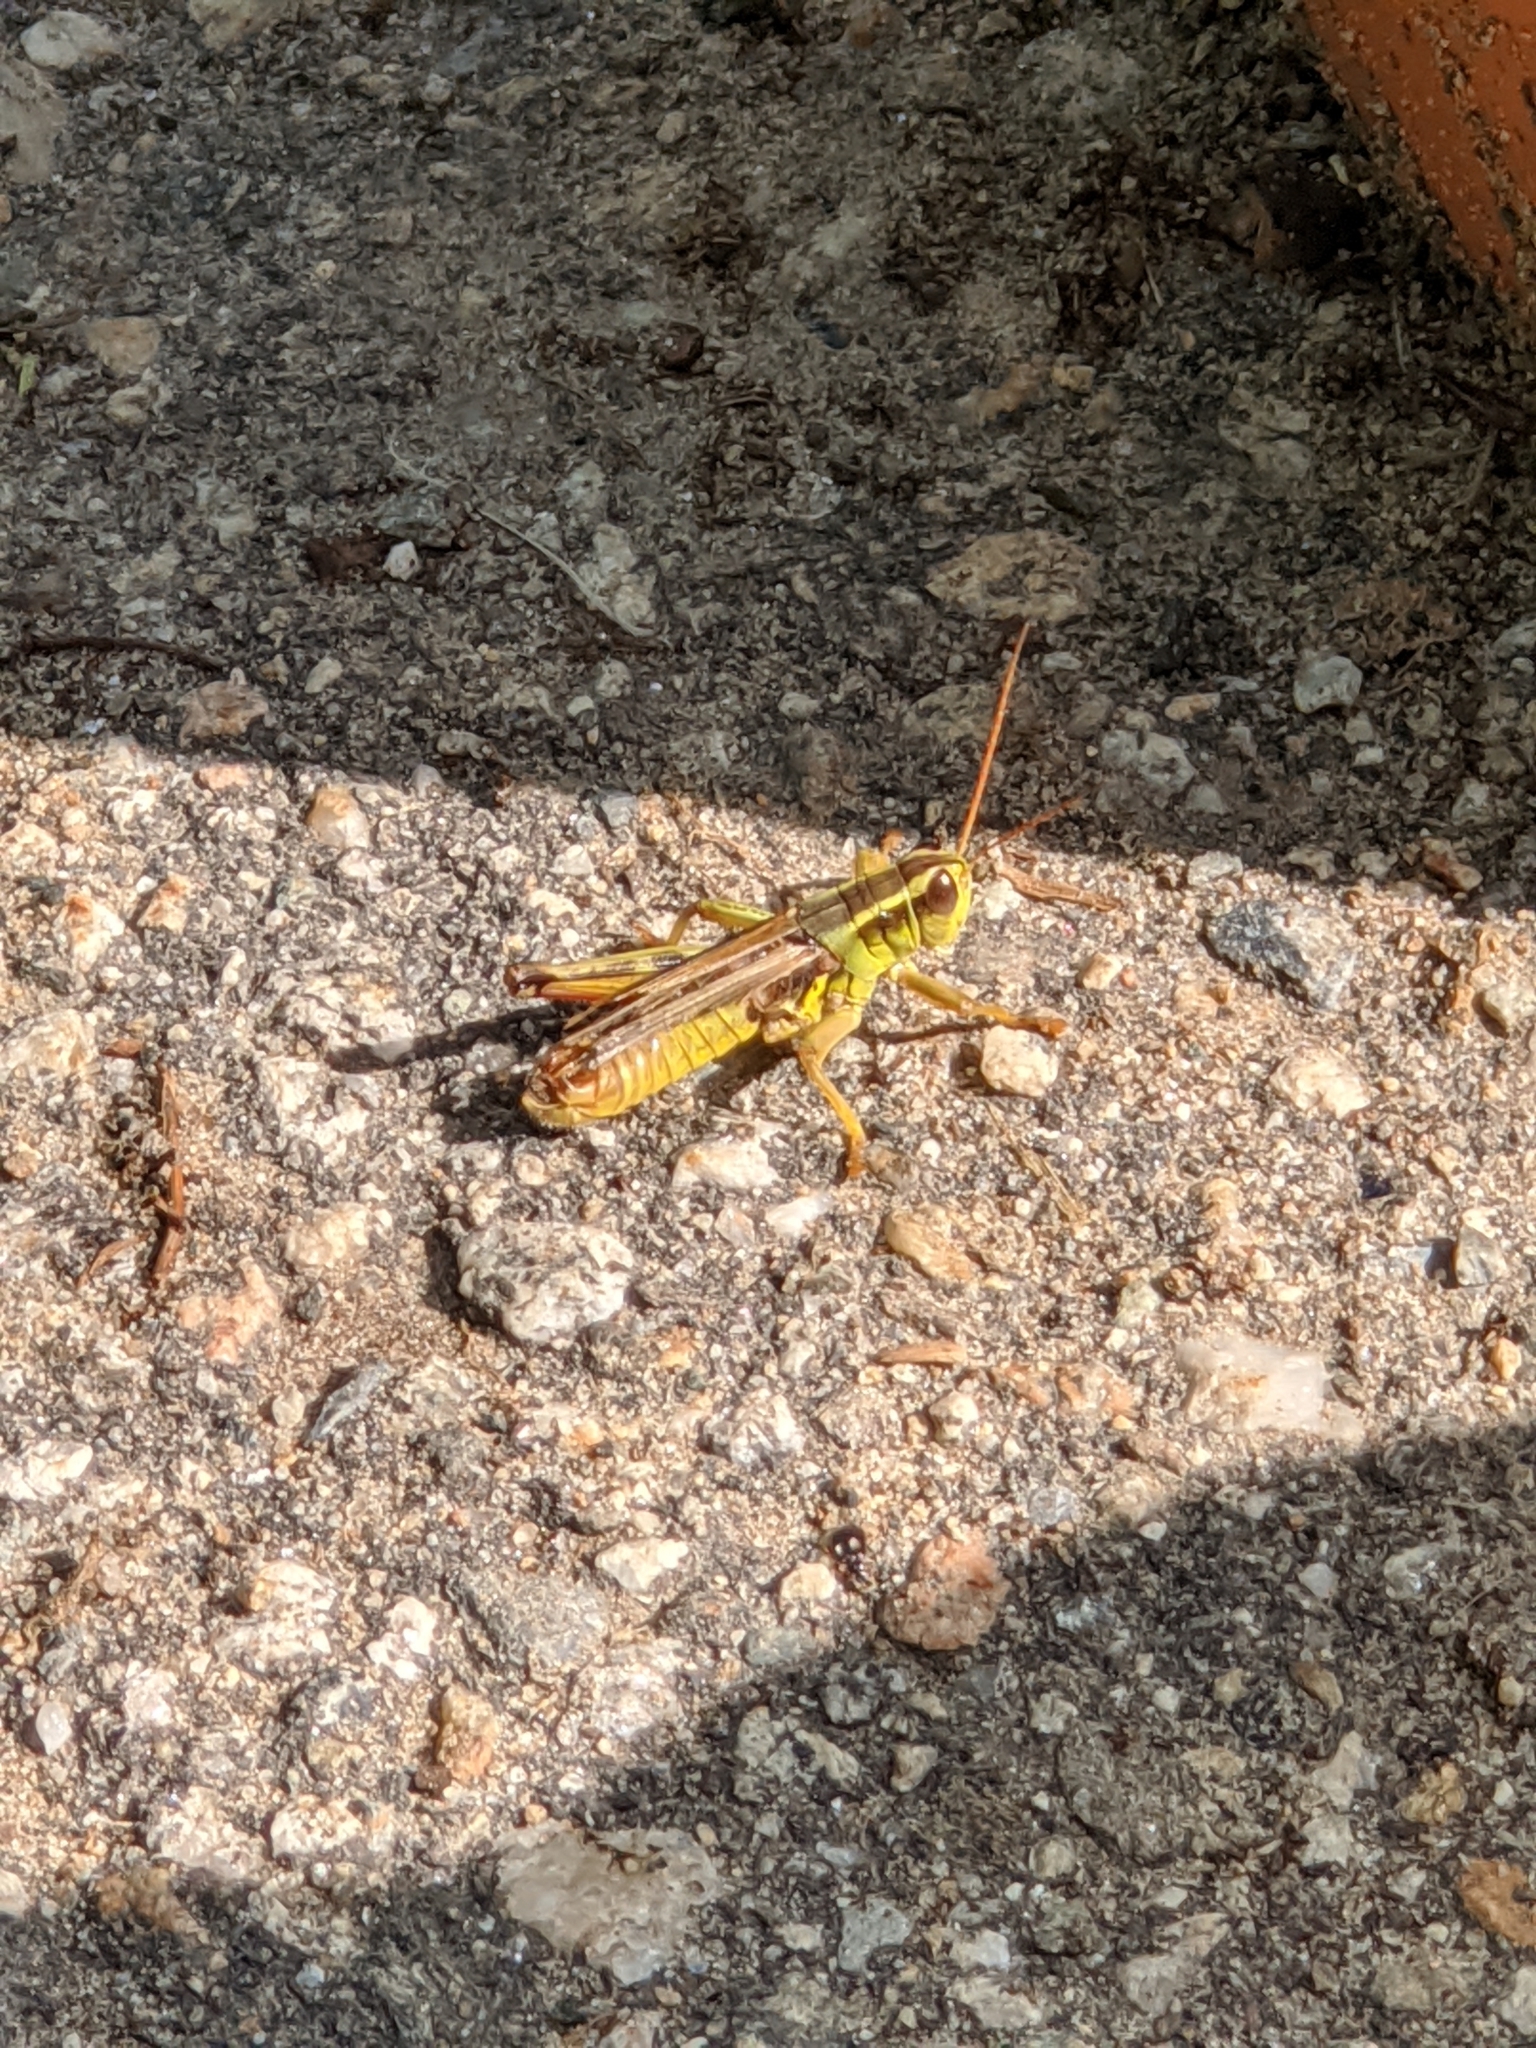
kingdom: Animalia
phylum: Arthropoda
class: Insecta
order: Orthoptera
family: Acrididae
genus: Melanoplus
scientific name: Melanoplus bivittatus
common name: Two-striped grasshopper
